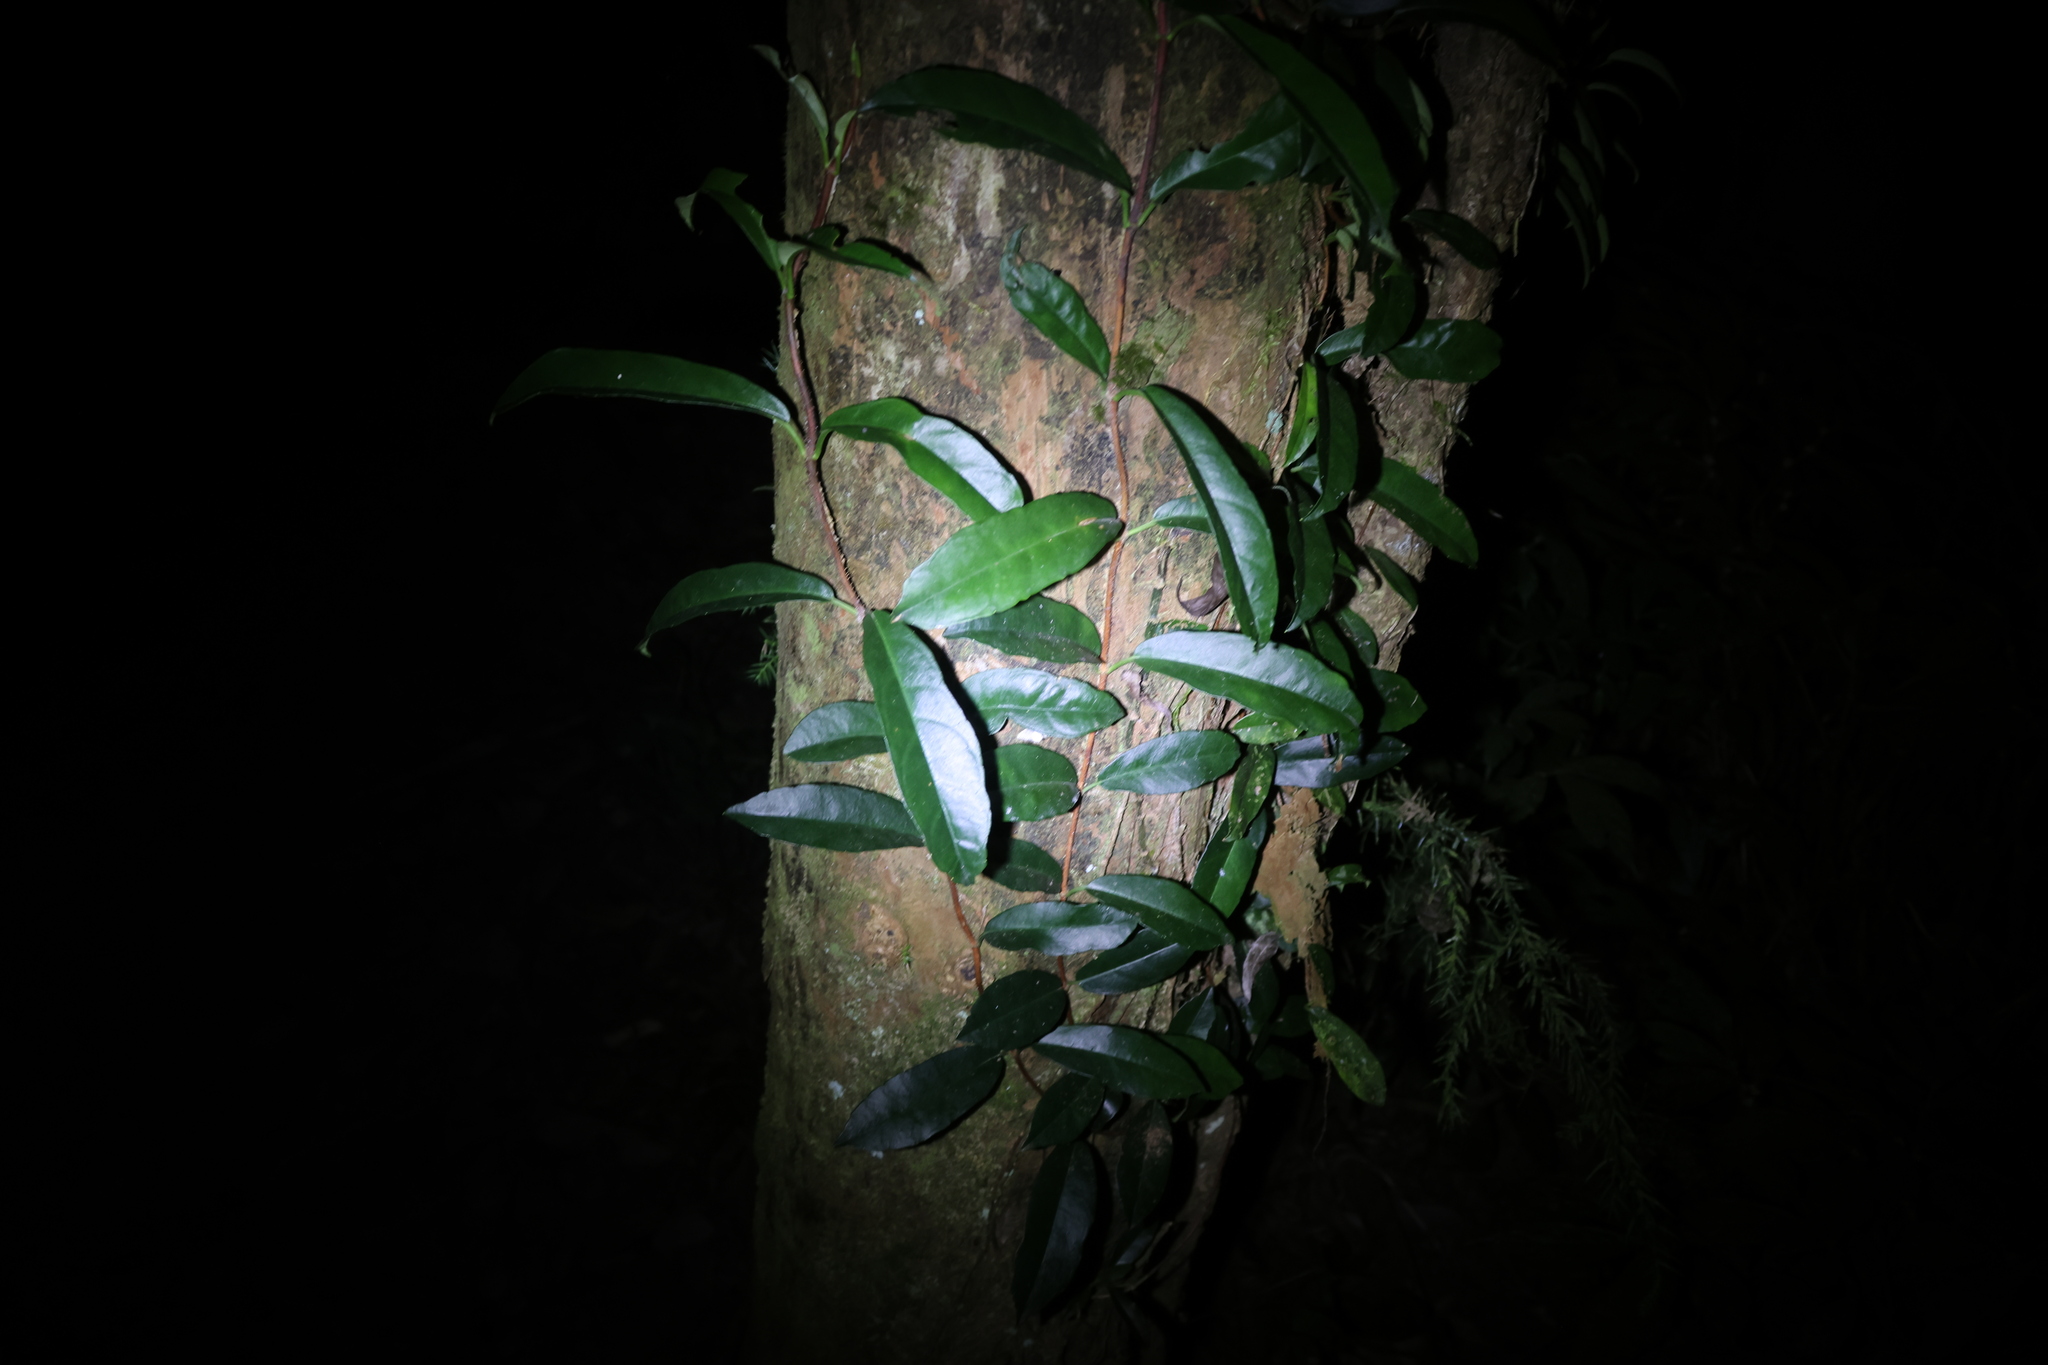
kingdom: Plantae
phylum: Tracheophyta
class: Magnoliopsida
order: Cornales
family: Hydrangeaceae
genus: Hydrangea
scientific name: Hydrangea viburnoides
